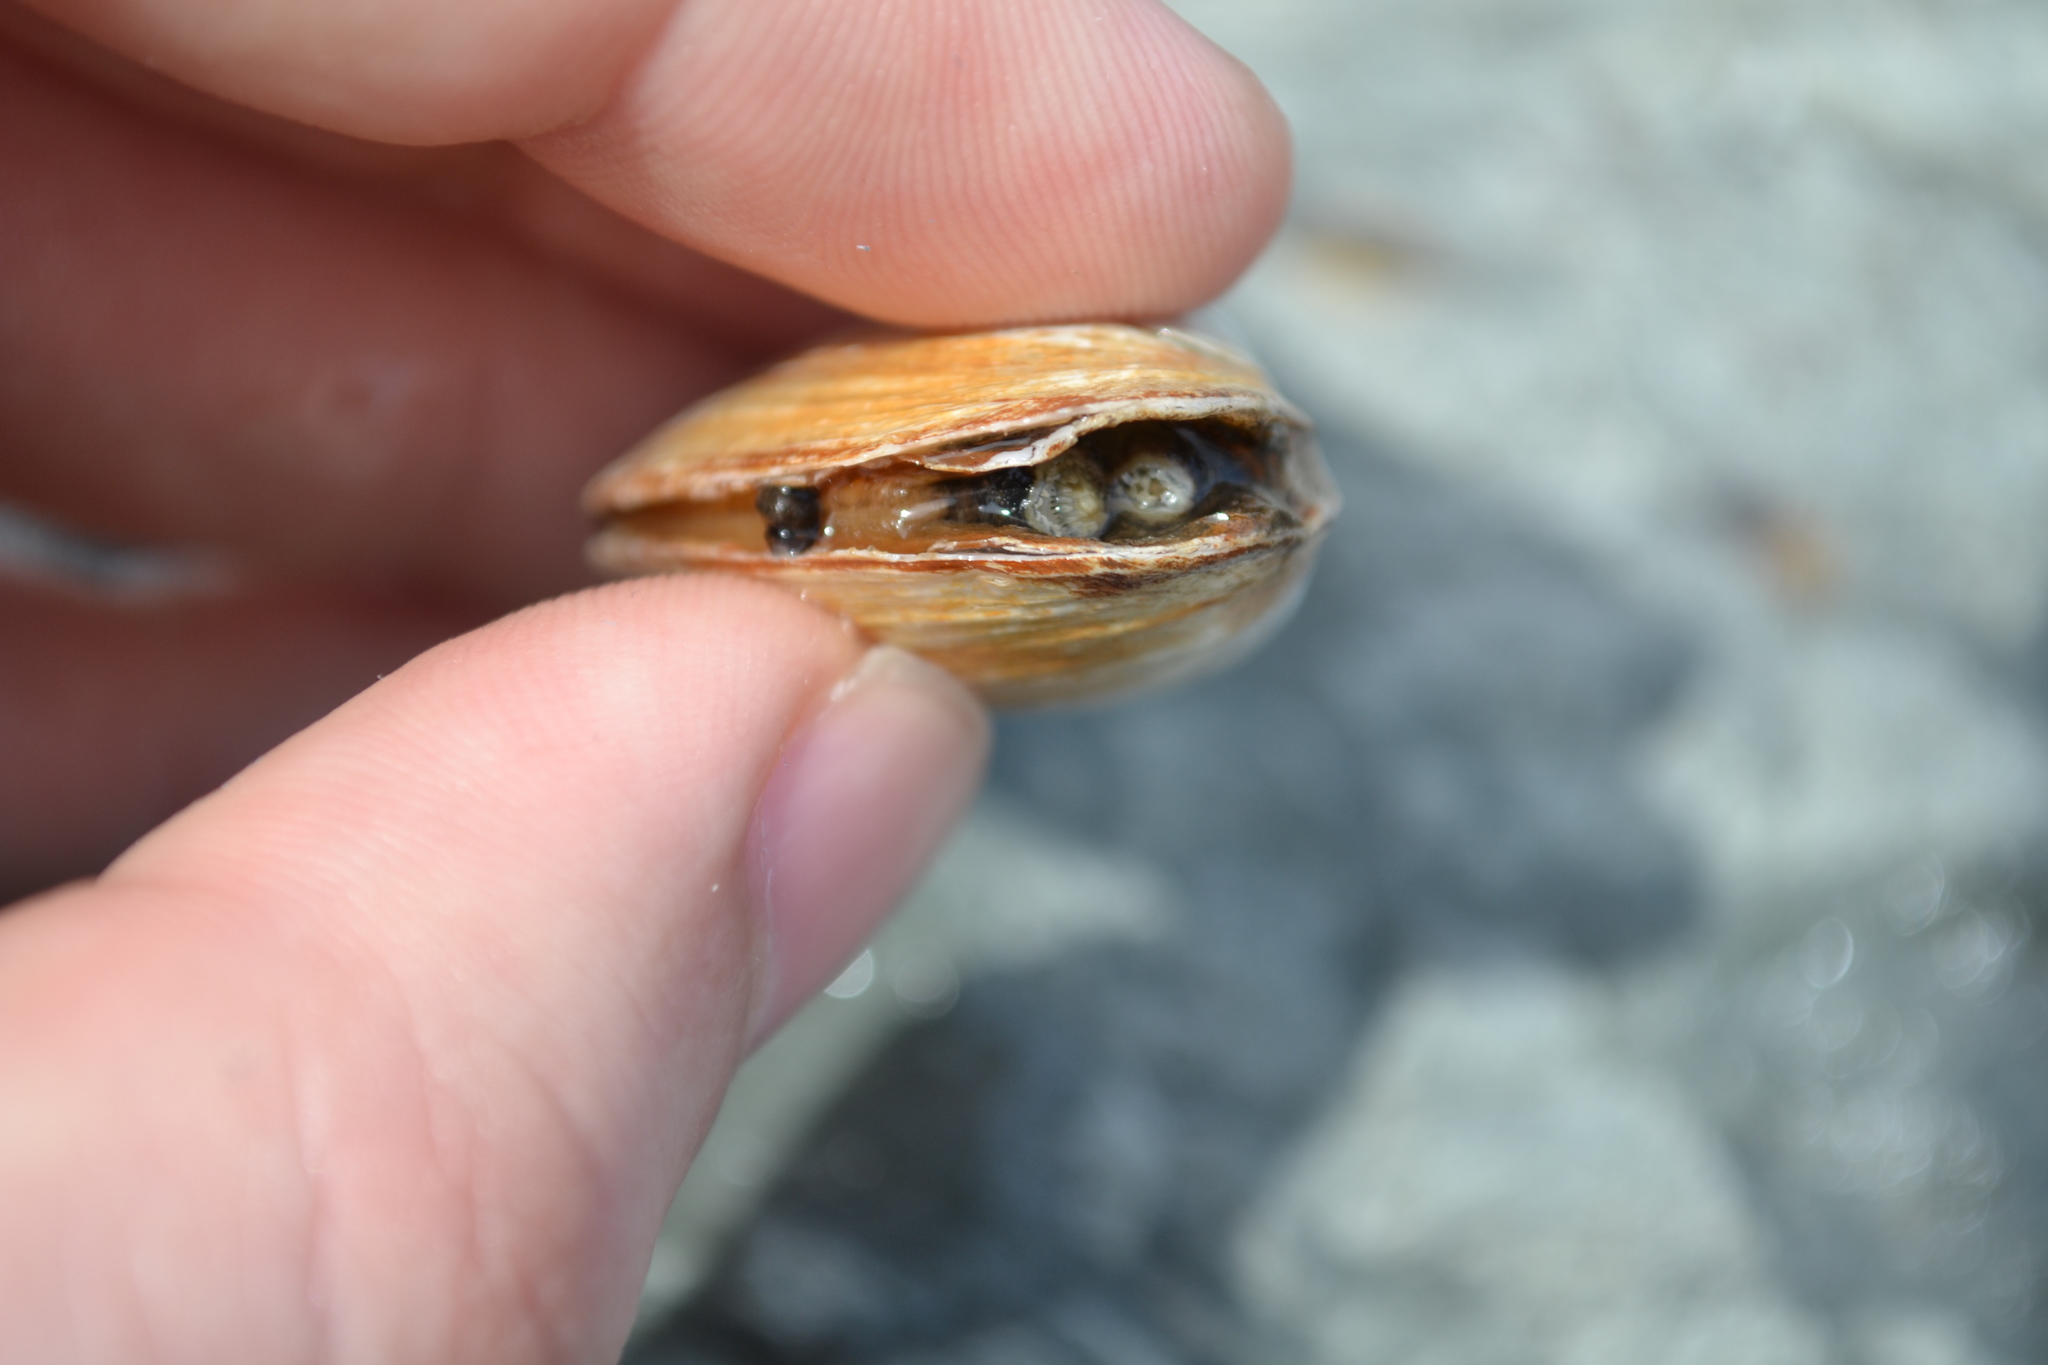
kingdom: Animalia
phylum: Mollusca
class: Bivalvia
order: Myida
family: Myidae
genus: Mya
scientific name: Mya arenaria
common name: Soft-shelled clam
